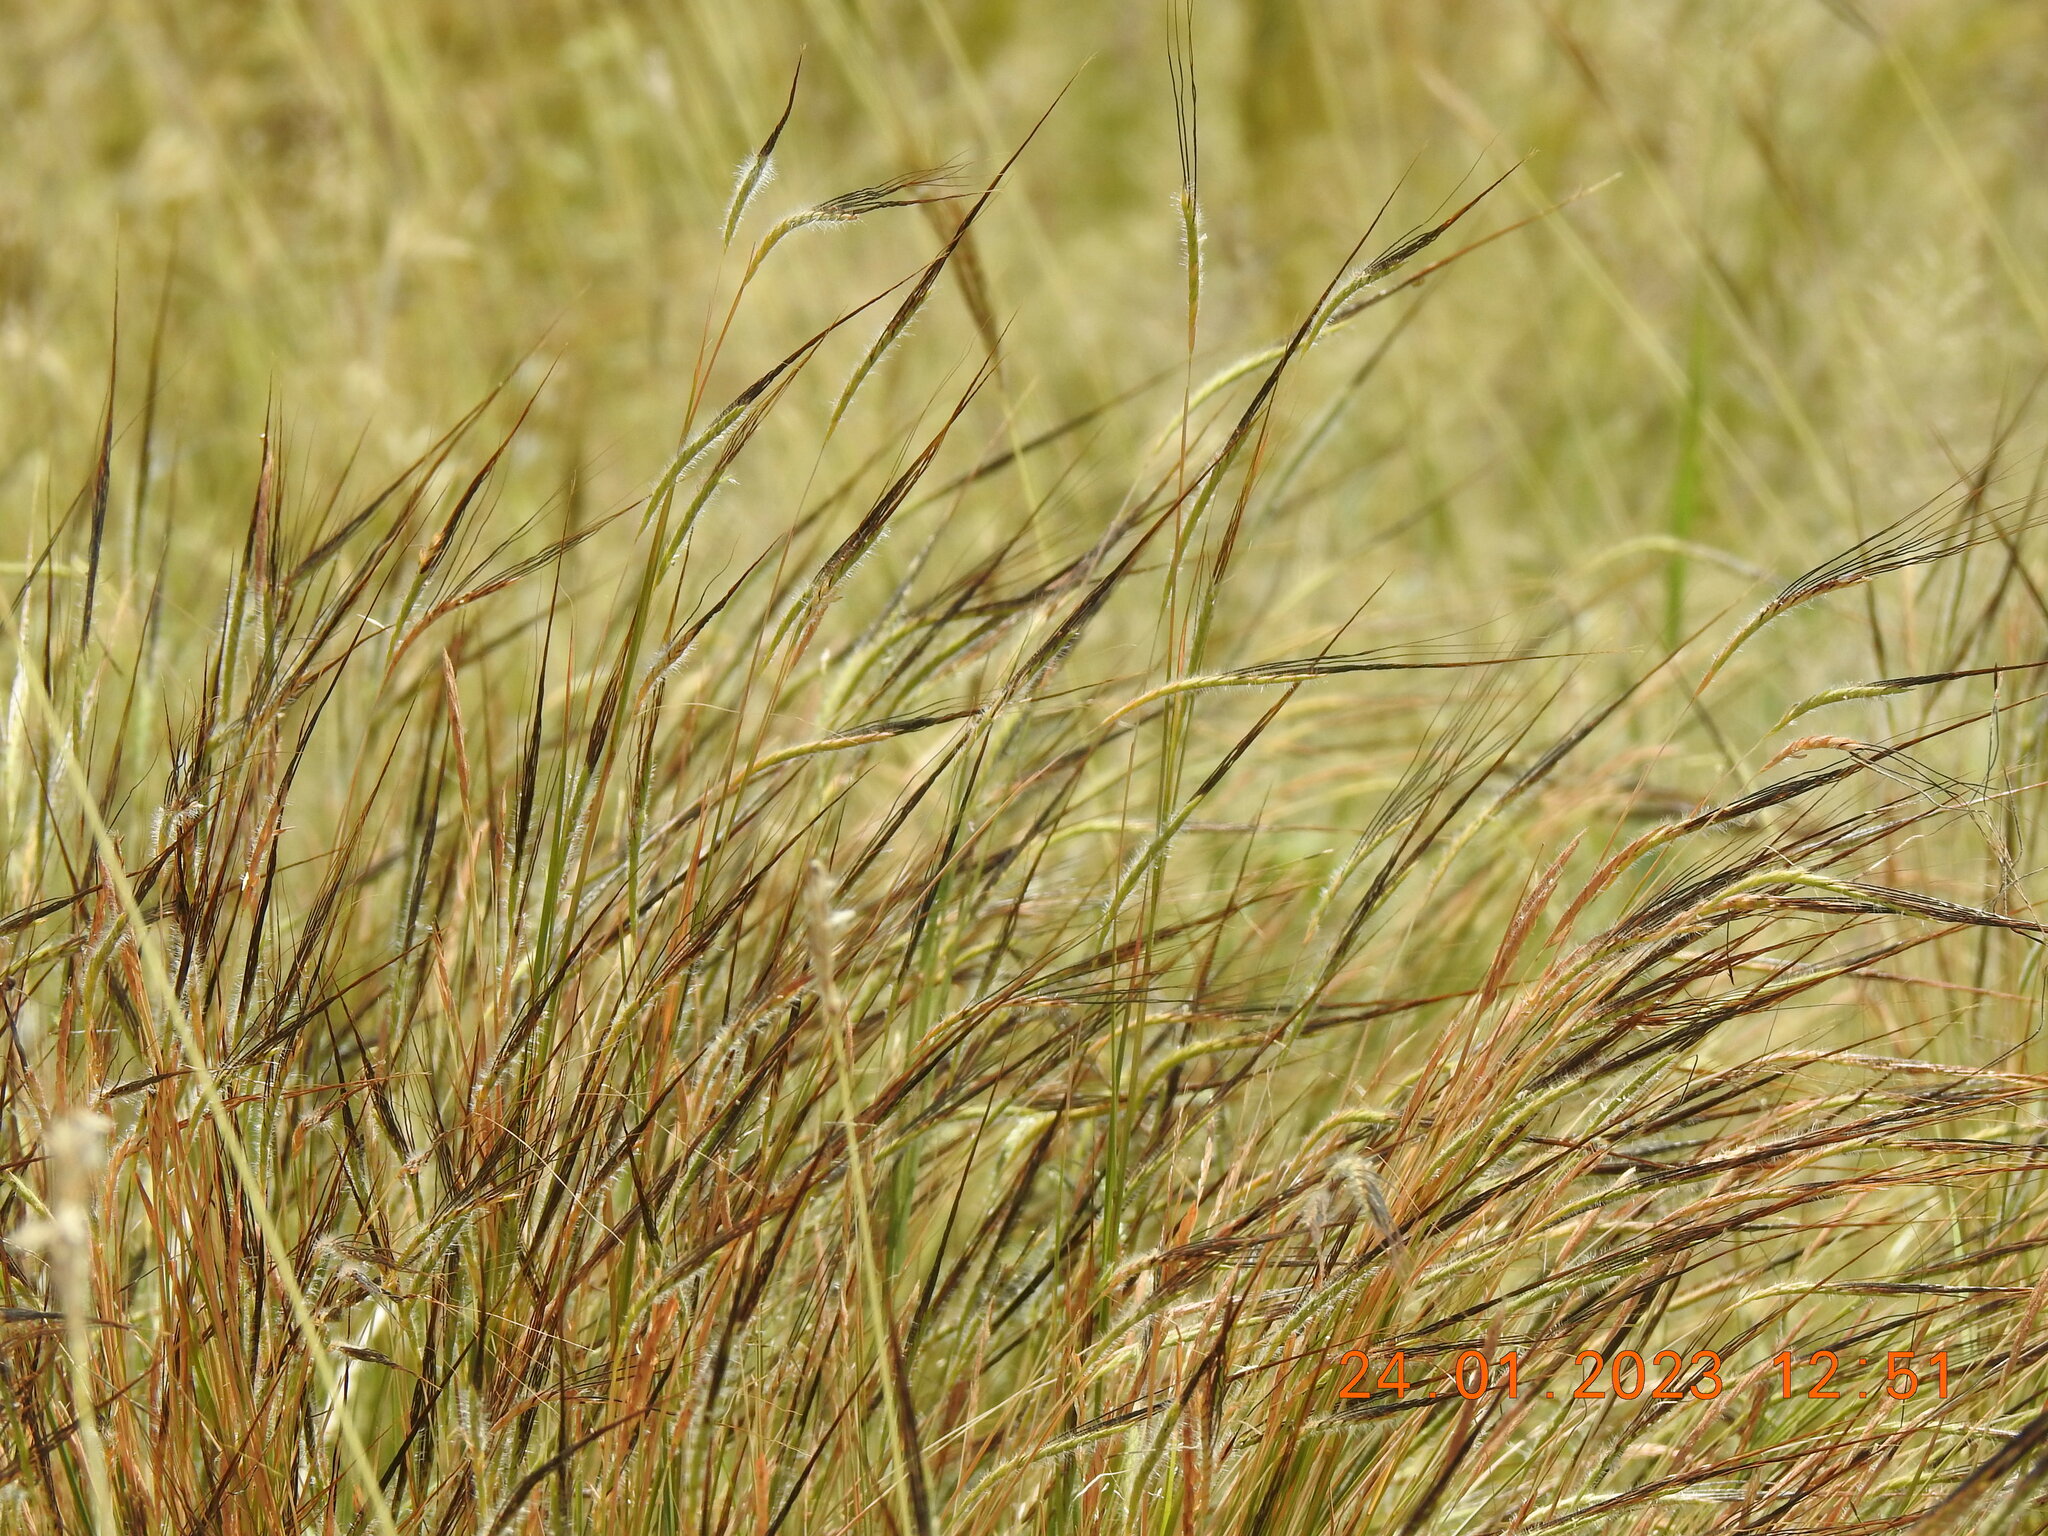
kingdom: Plantae
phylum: Tracheophyta
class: Liliopsida
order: Poales
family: Poaceae
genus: Heteropogon
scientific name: Heteropogon contortus
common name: Tanglehead
